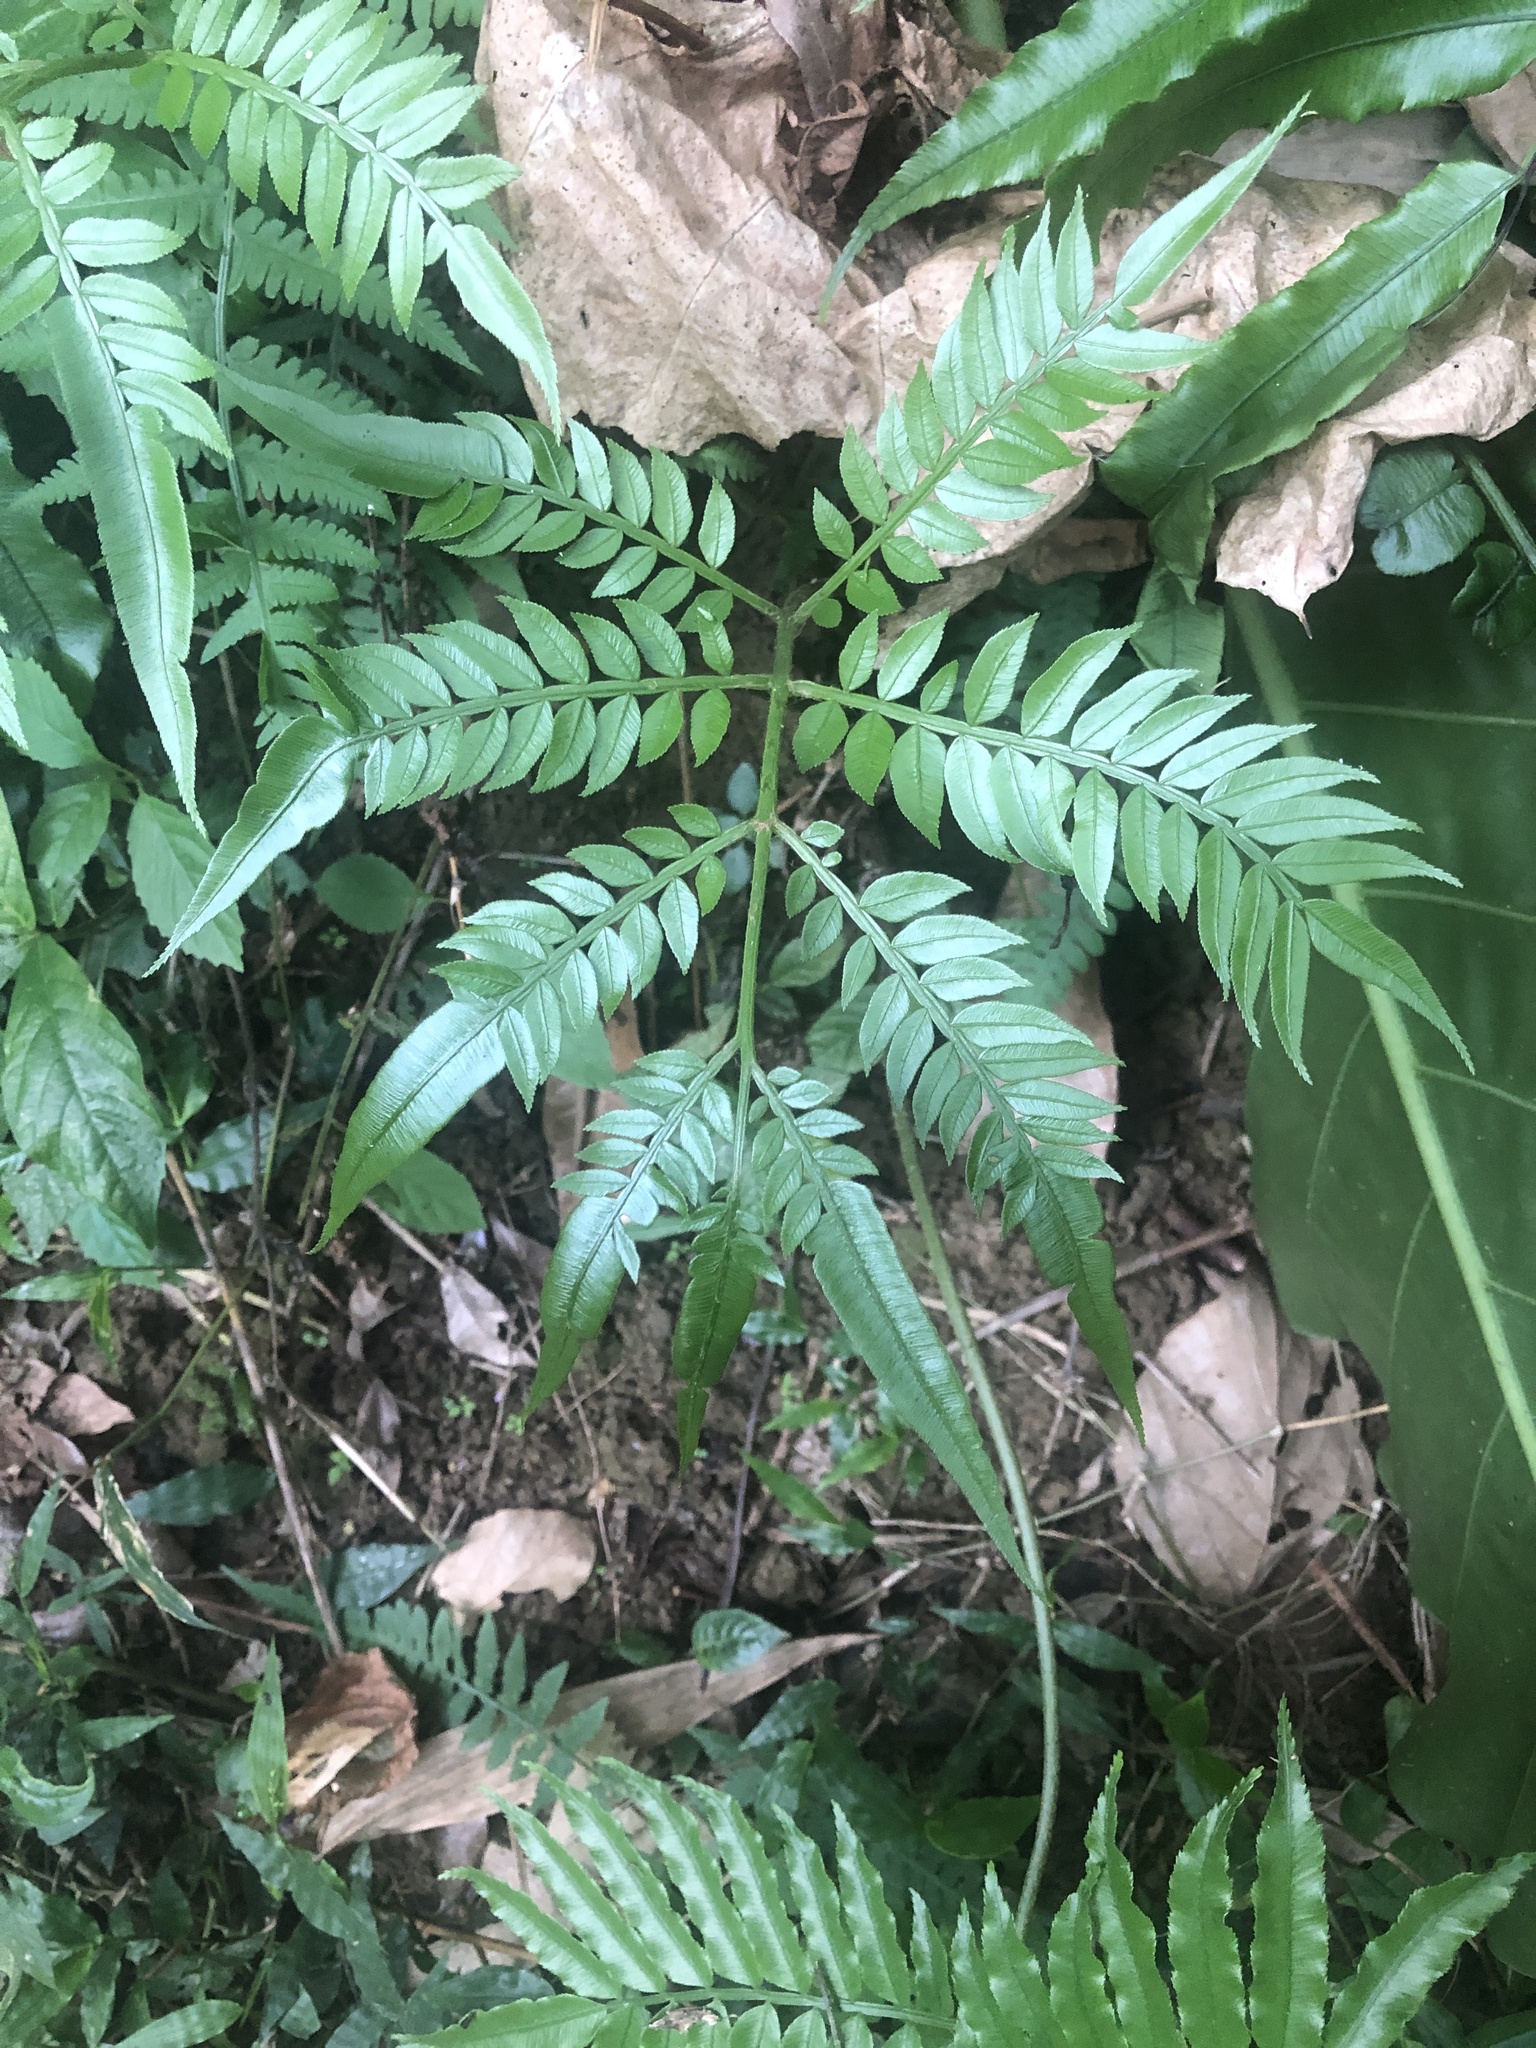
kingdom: Plantae
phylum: Tracheophyta
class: Polypodiopsida
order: Marattiales
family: Marattiaceae
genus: Angiopteris
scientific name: Angiopteris lygodiifolia
